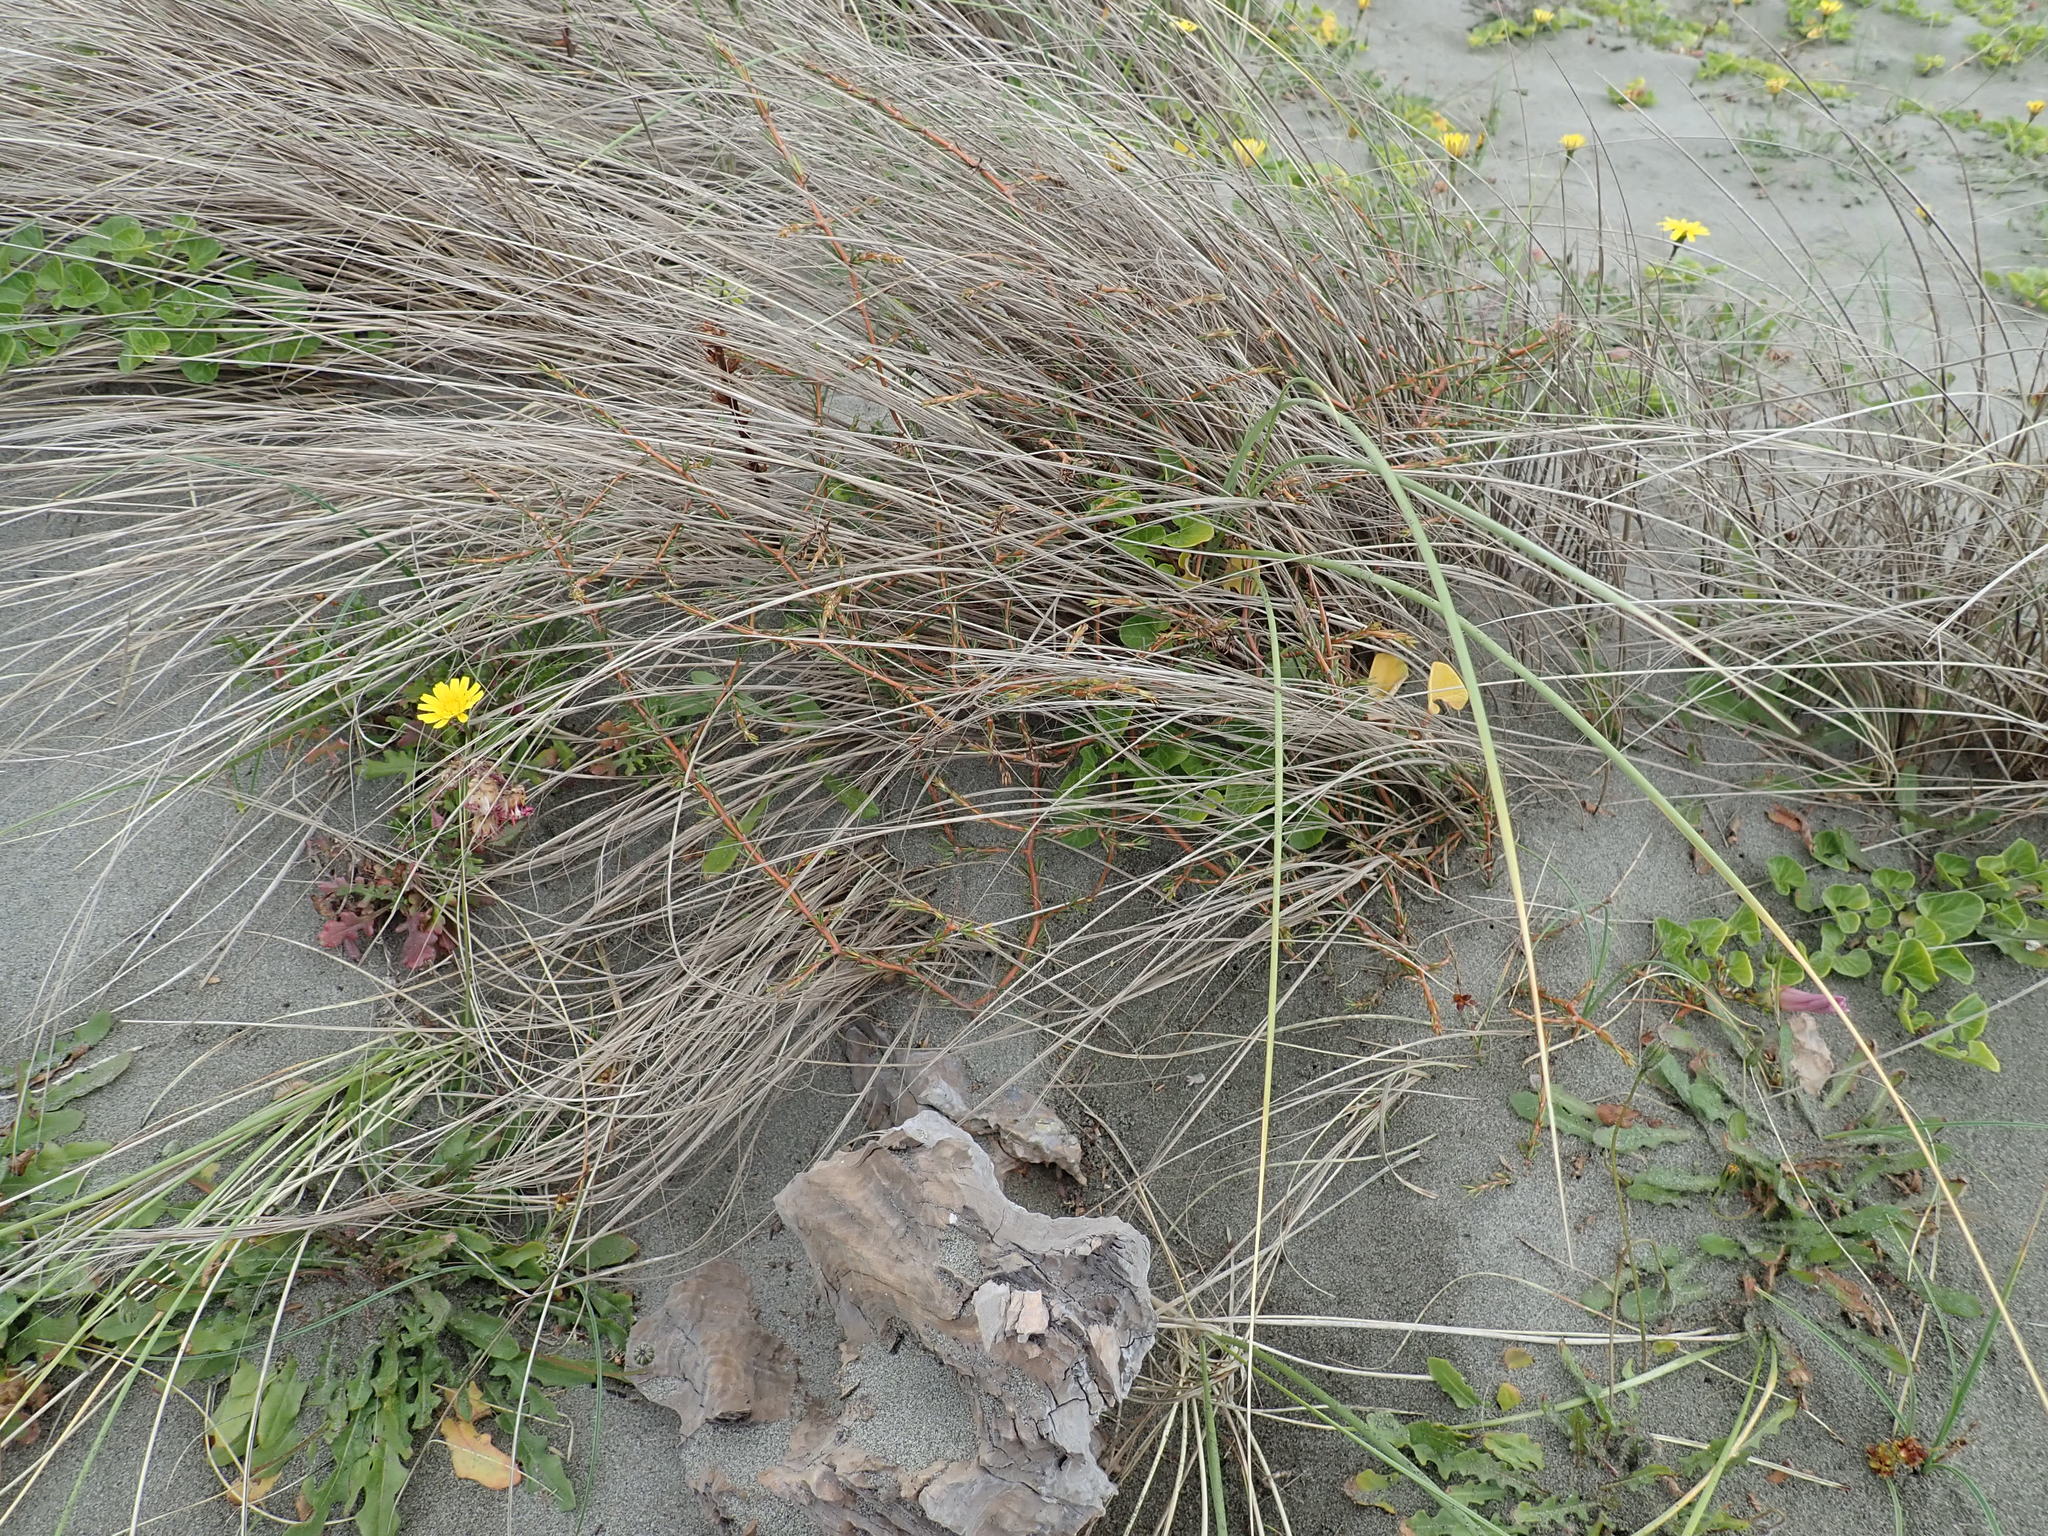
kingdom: Plantae
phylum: Tracheophyta
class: Magnoliopsida
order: Gentianales
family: Rubiaceae
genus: Coprosma
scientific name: Coprosma acerosa
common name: Sand coprosma
